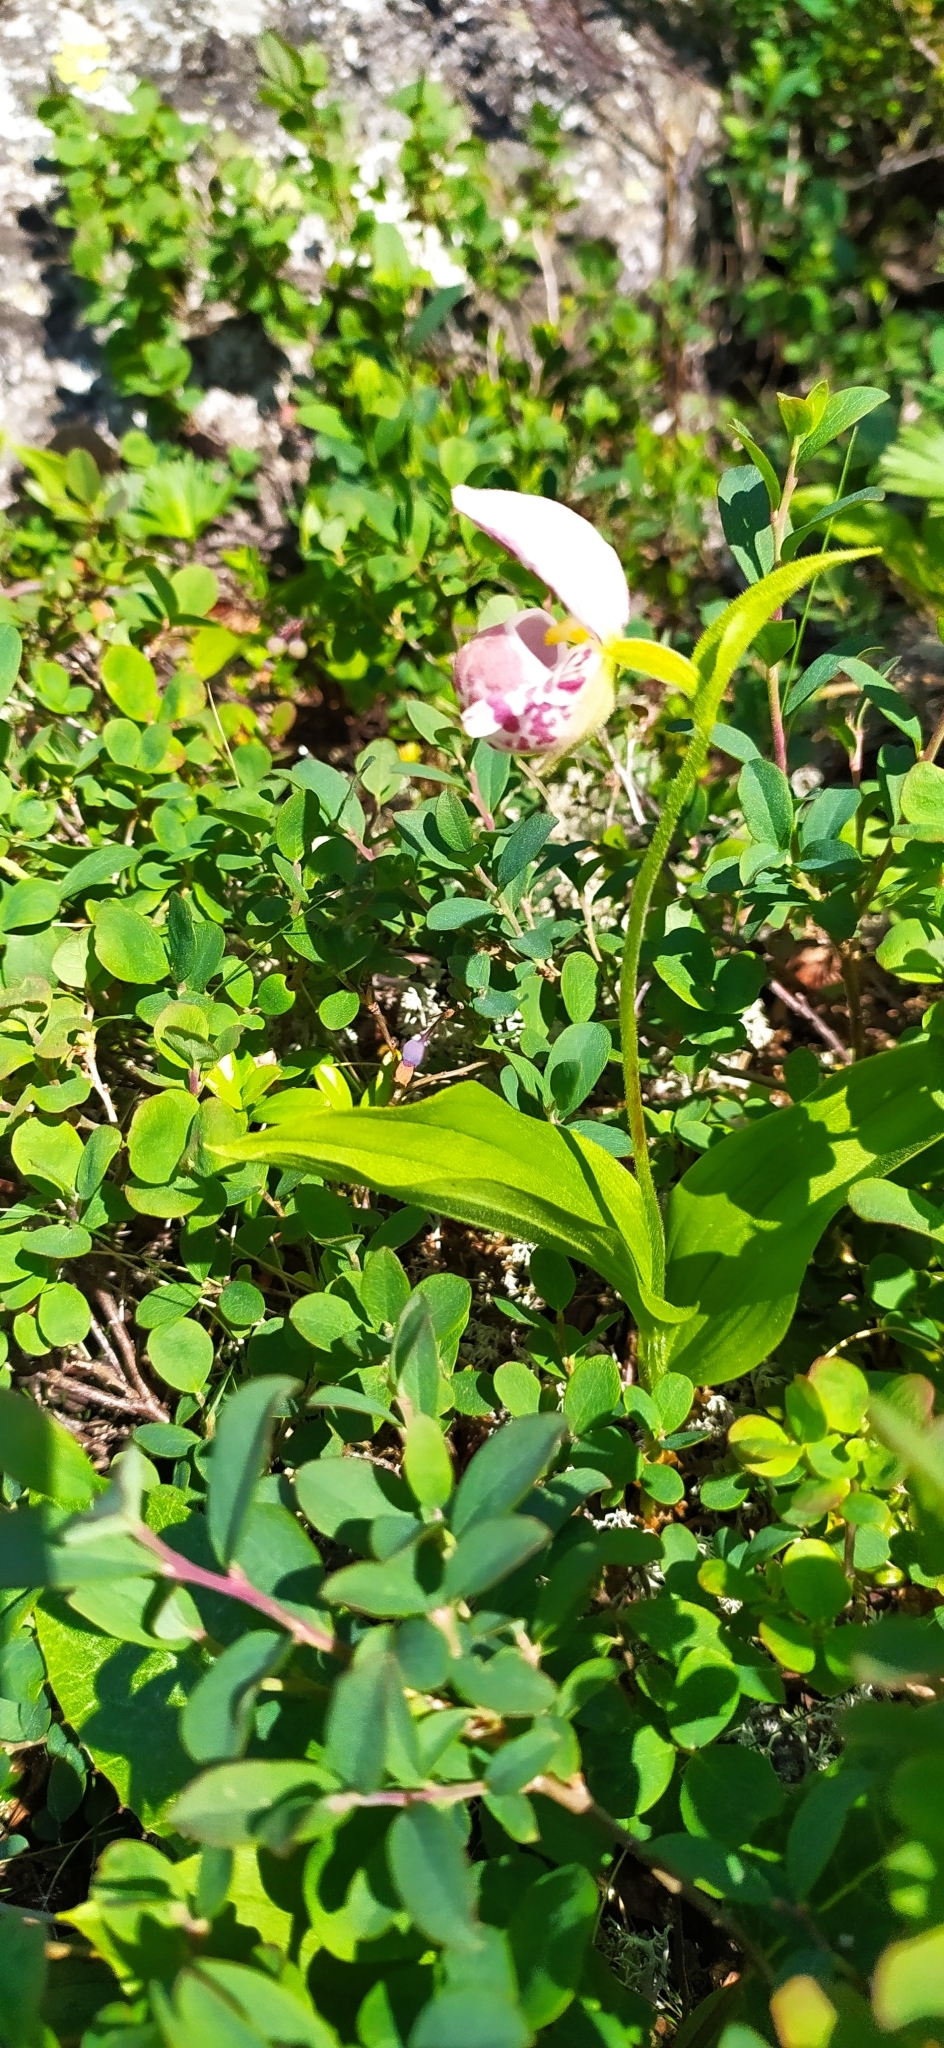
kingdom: Plantae
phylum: Tracheophyta
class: Liliopsida
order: Asparagales
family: Orchidaceae
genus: Cypripedium
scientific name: Cypripedium guttatum
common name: Pink lady slipper
